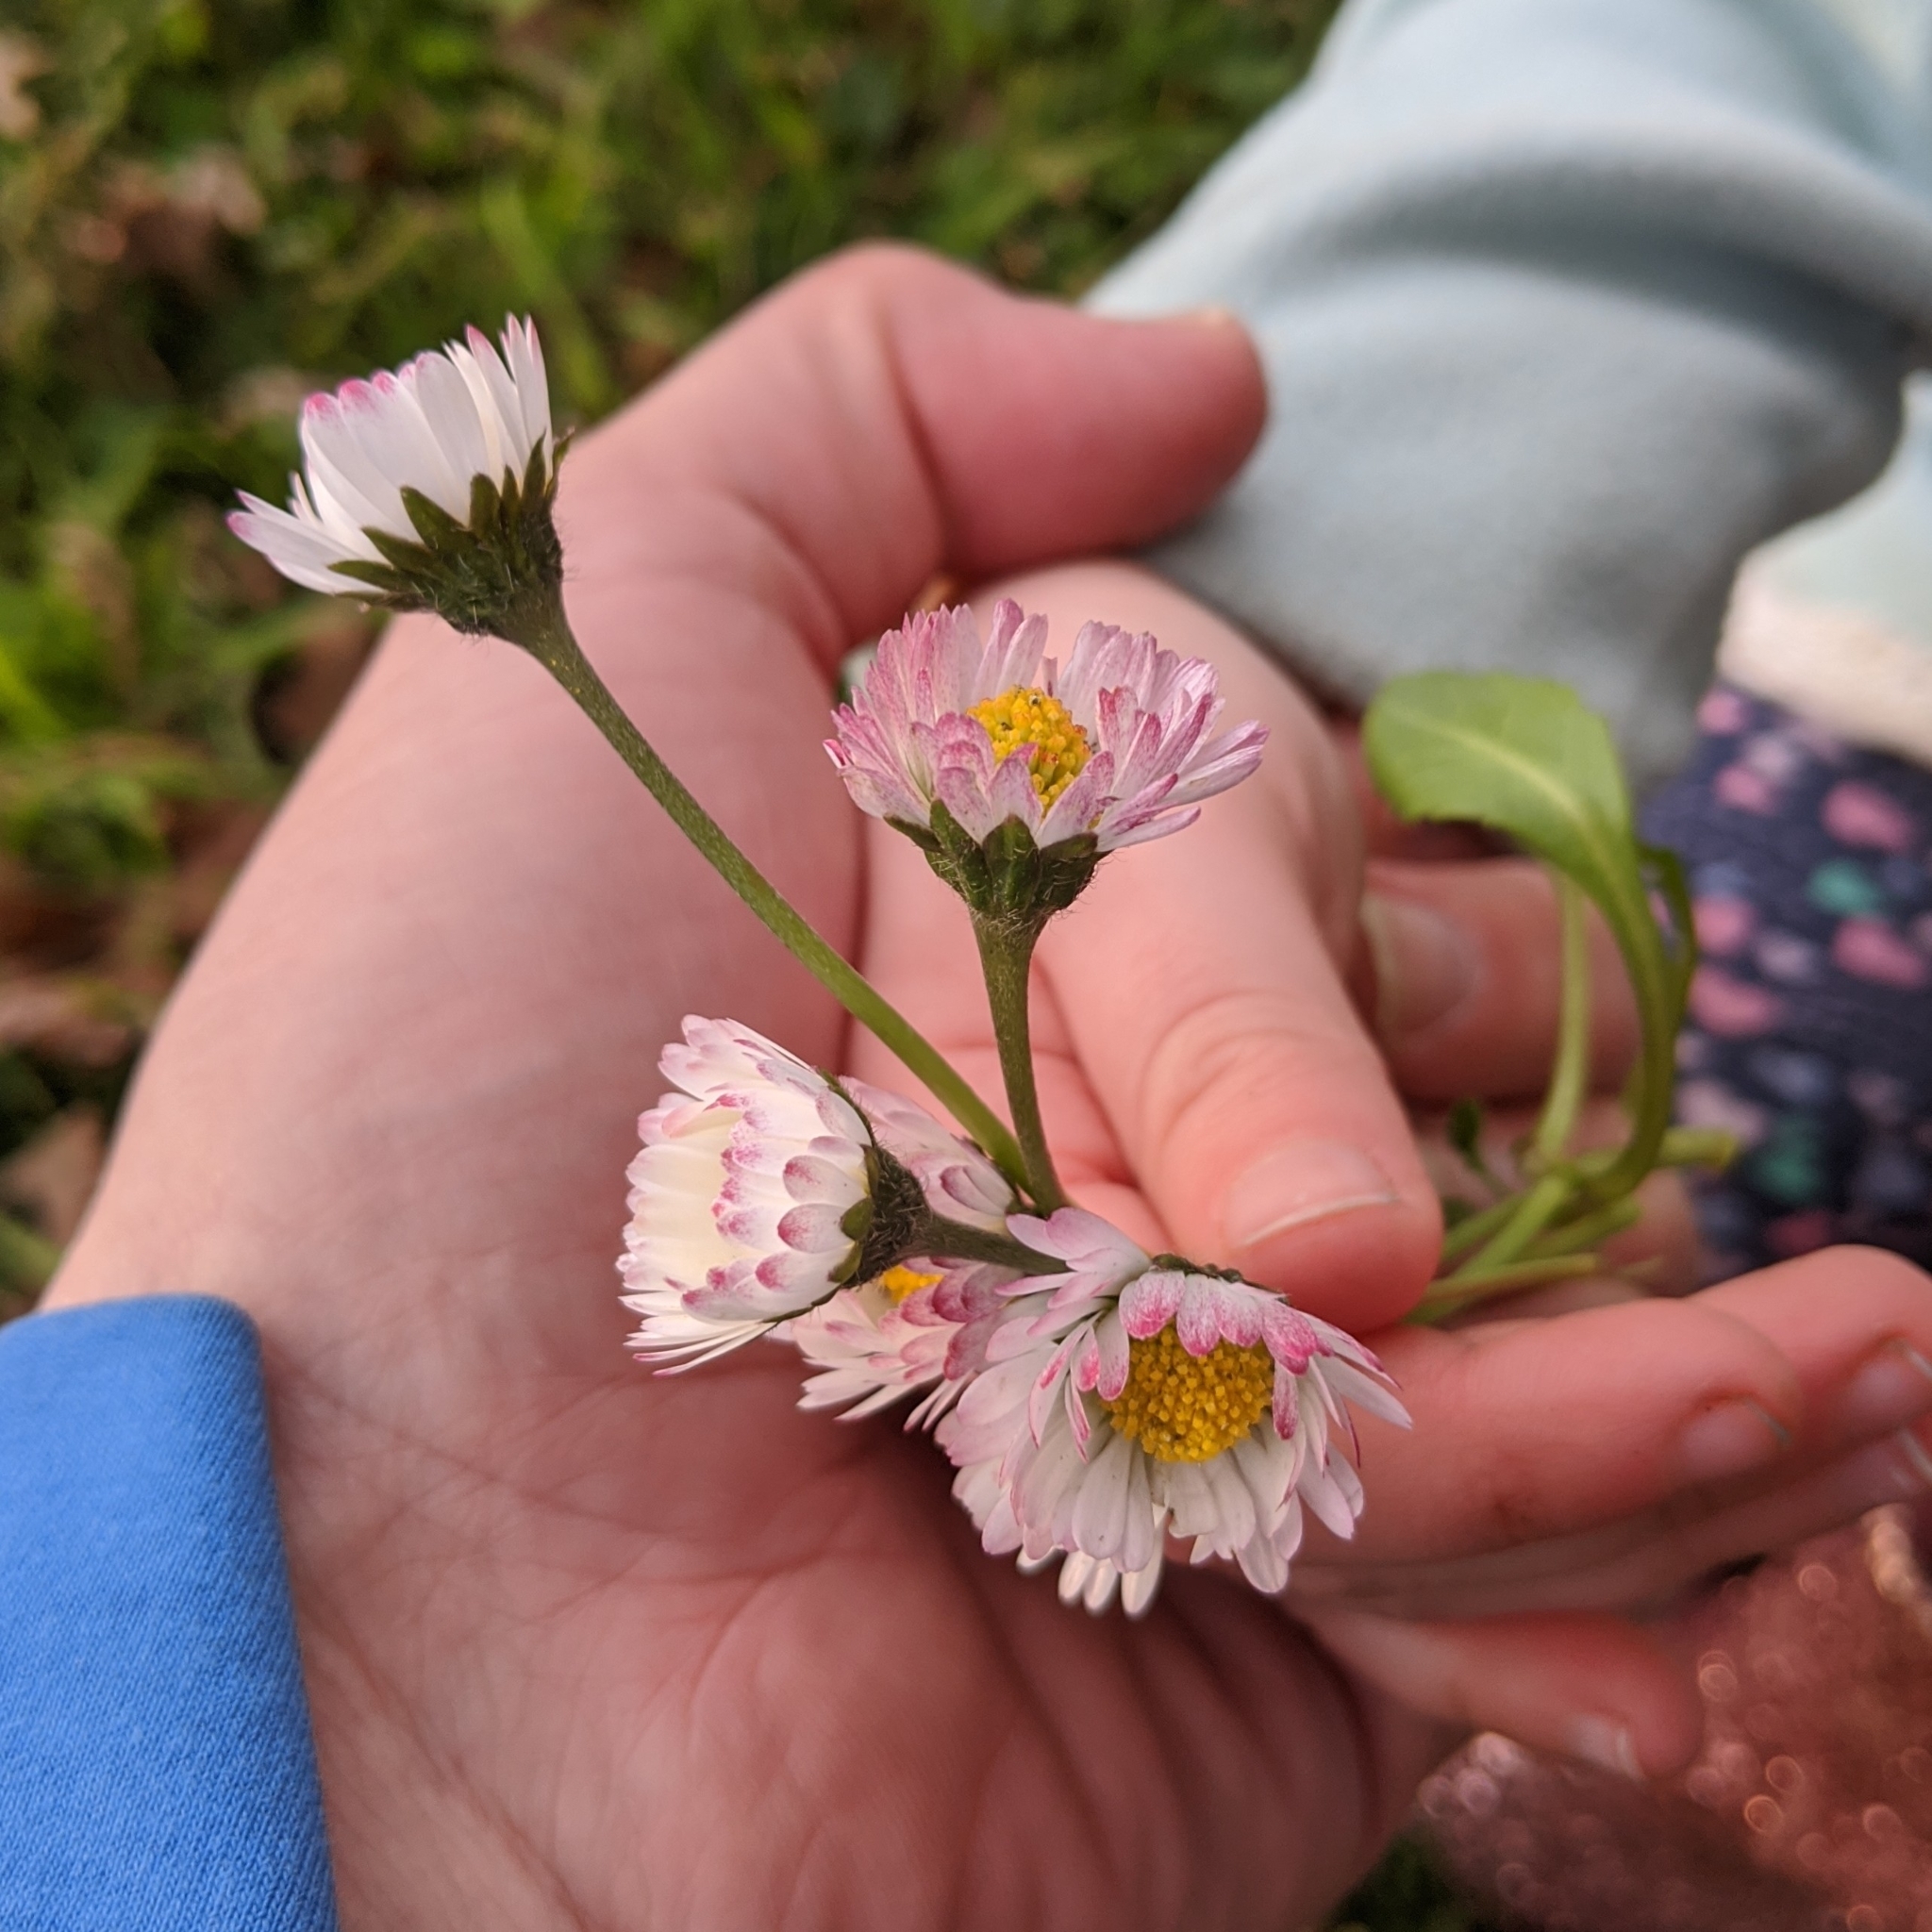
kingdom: Plantae
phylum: Tracheophyta
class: Magnoliopsida
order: Asterales
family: Asteraceae
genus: Bellis
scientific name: Bellis perennis
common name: Lawndaisy
